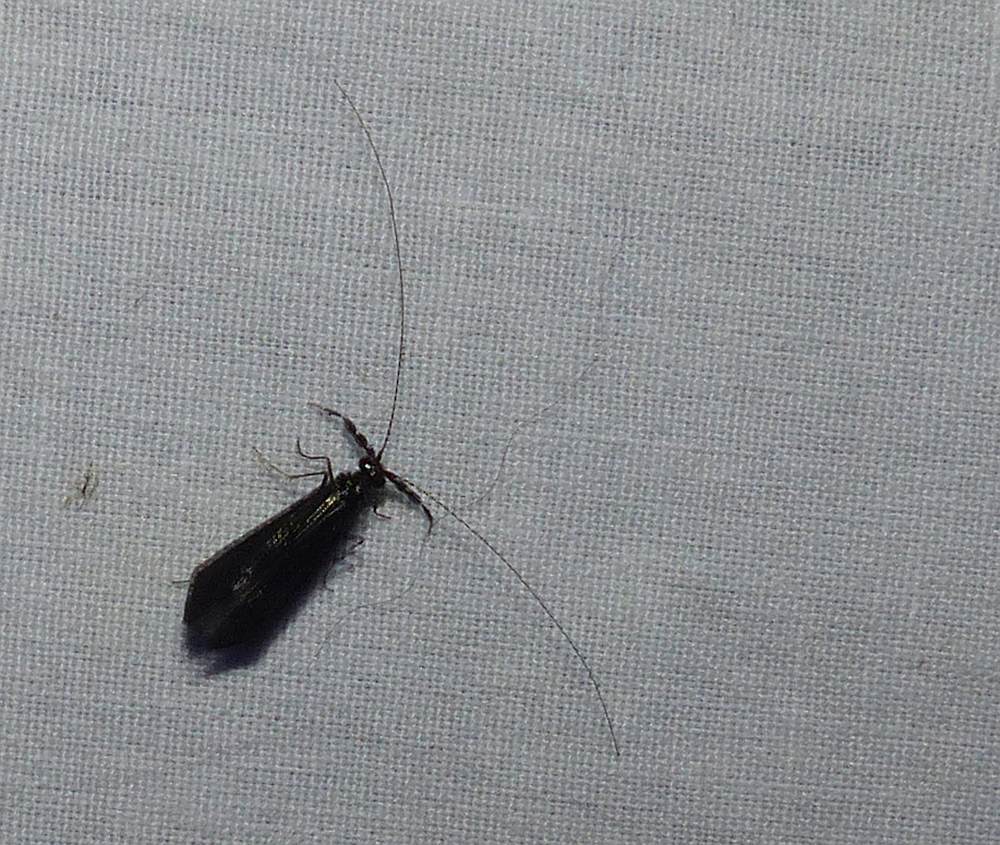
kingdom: Animalia
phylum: Arthropoda
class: Insecta
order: Trichoptera
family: Leptoceridae
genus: Mystacides
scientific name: Mystacides sepulchralis
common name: Black dancer caddisfly
